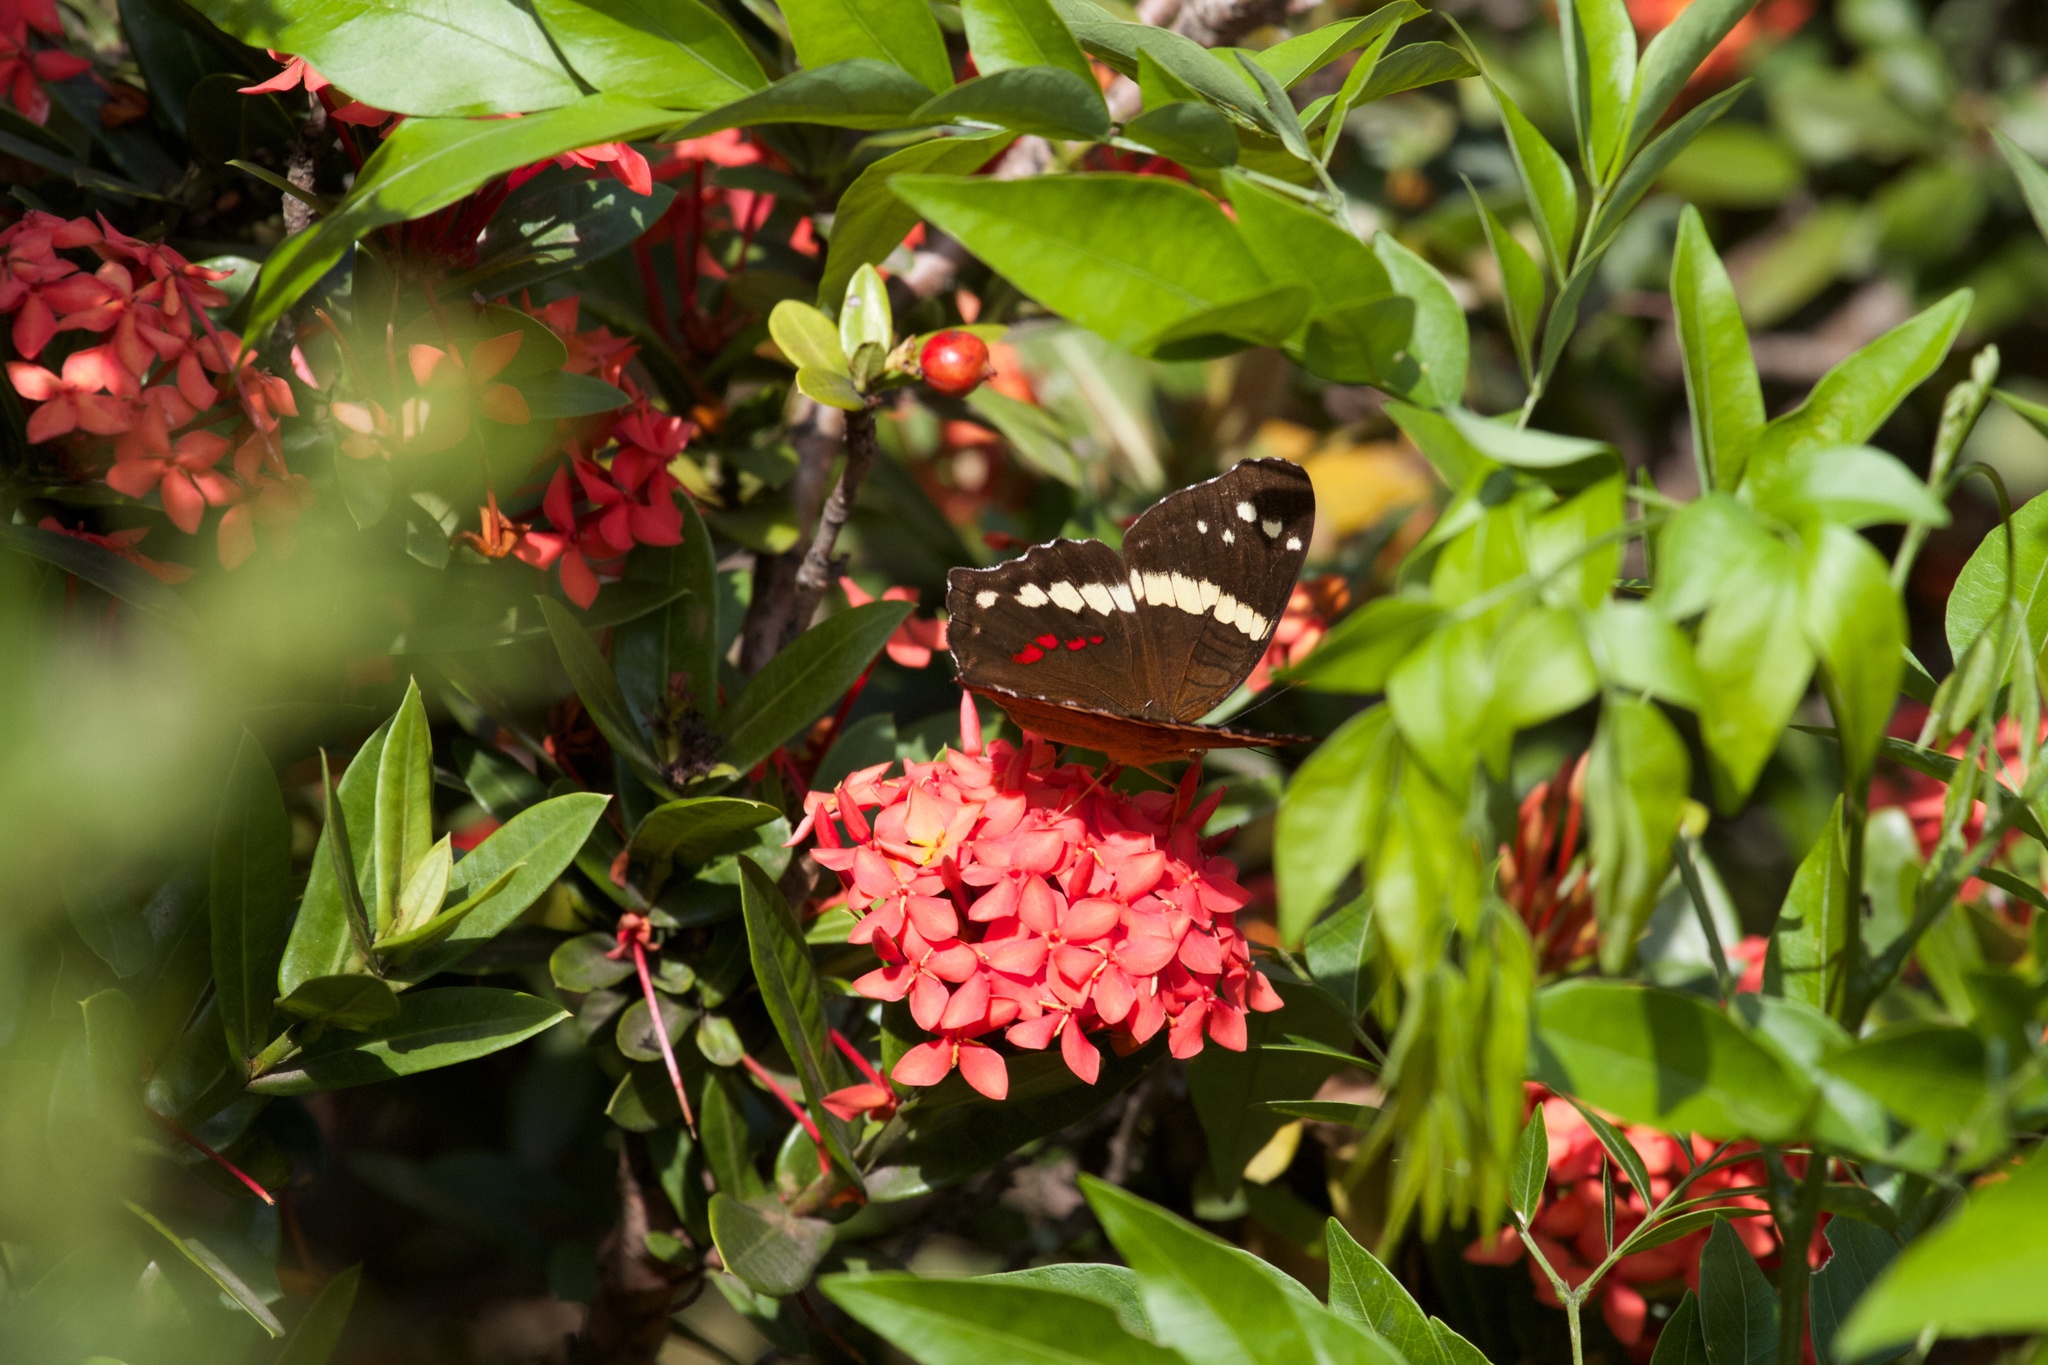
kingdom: Animalia
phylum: Arthropoda
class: Insecta
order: Lepidoptera
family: Nymphalidae
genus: Anartia
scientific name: Anartia fatima
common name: Banded peacock
